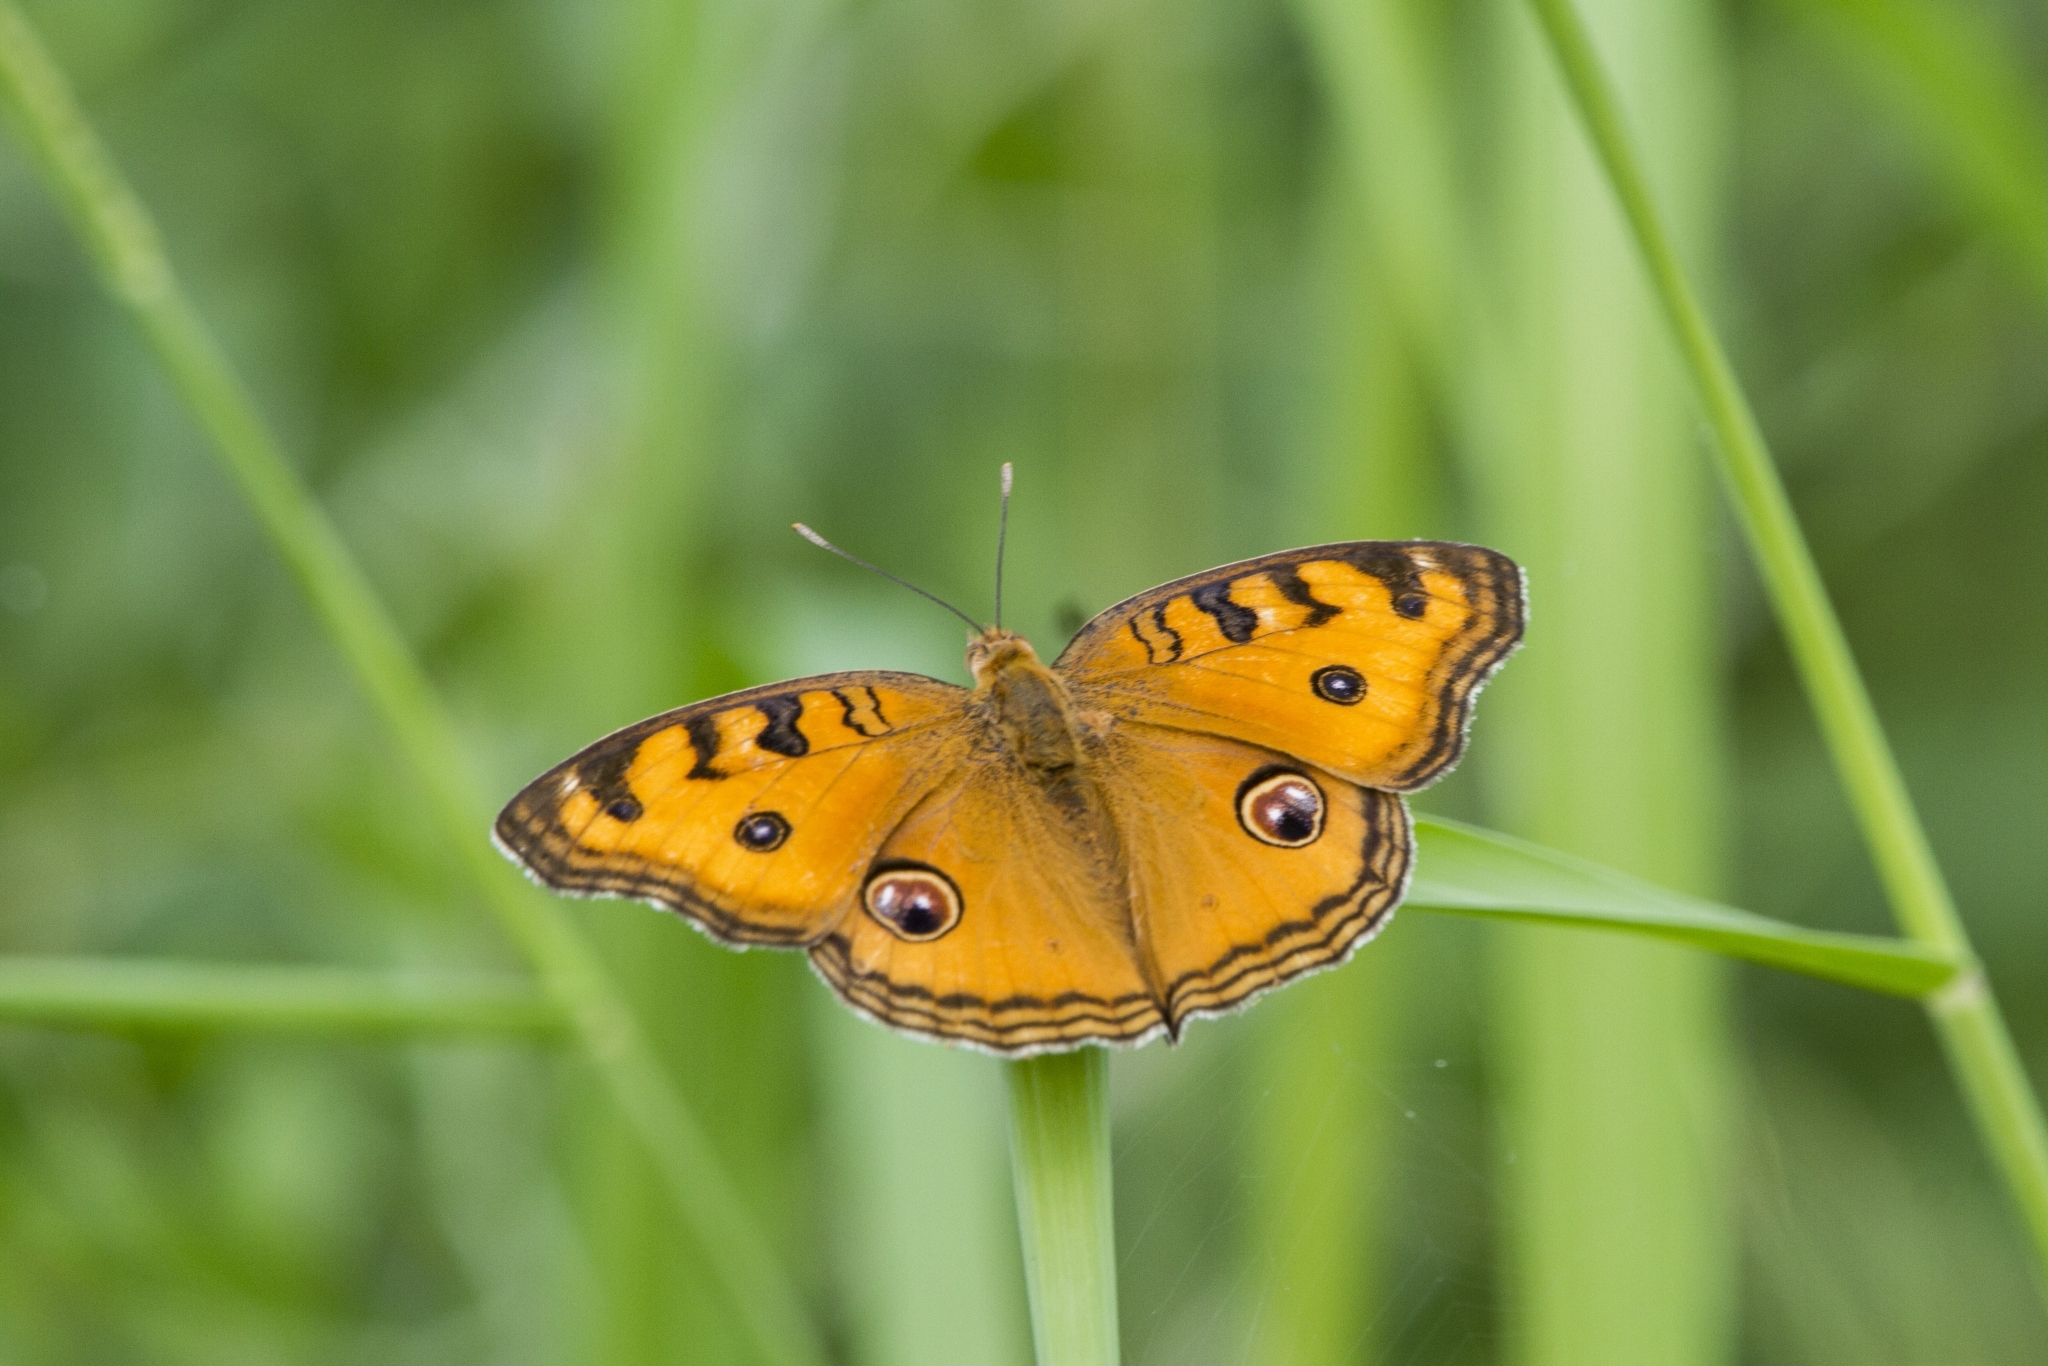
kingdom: Animalia
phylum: Arthropoda
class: Insecta
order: Lepidoptera
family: Nymphalidae
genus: Junonia
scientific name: Junonia almana
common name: Peacock pansy
